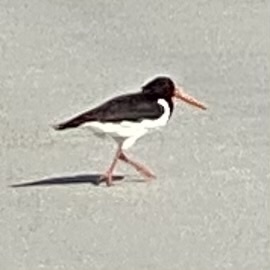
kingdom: Animalia
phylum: Chordata
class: Aves
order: Charadriiformes
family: Haematopodidae
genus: Haematopus
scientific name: Haematopus ostralegus
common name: Eurasian oystercatcher
